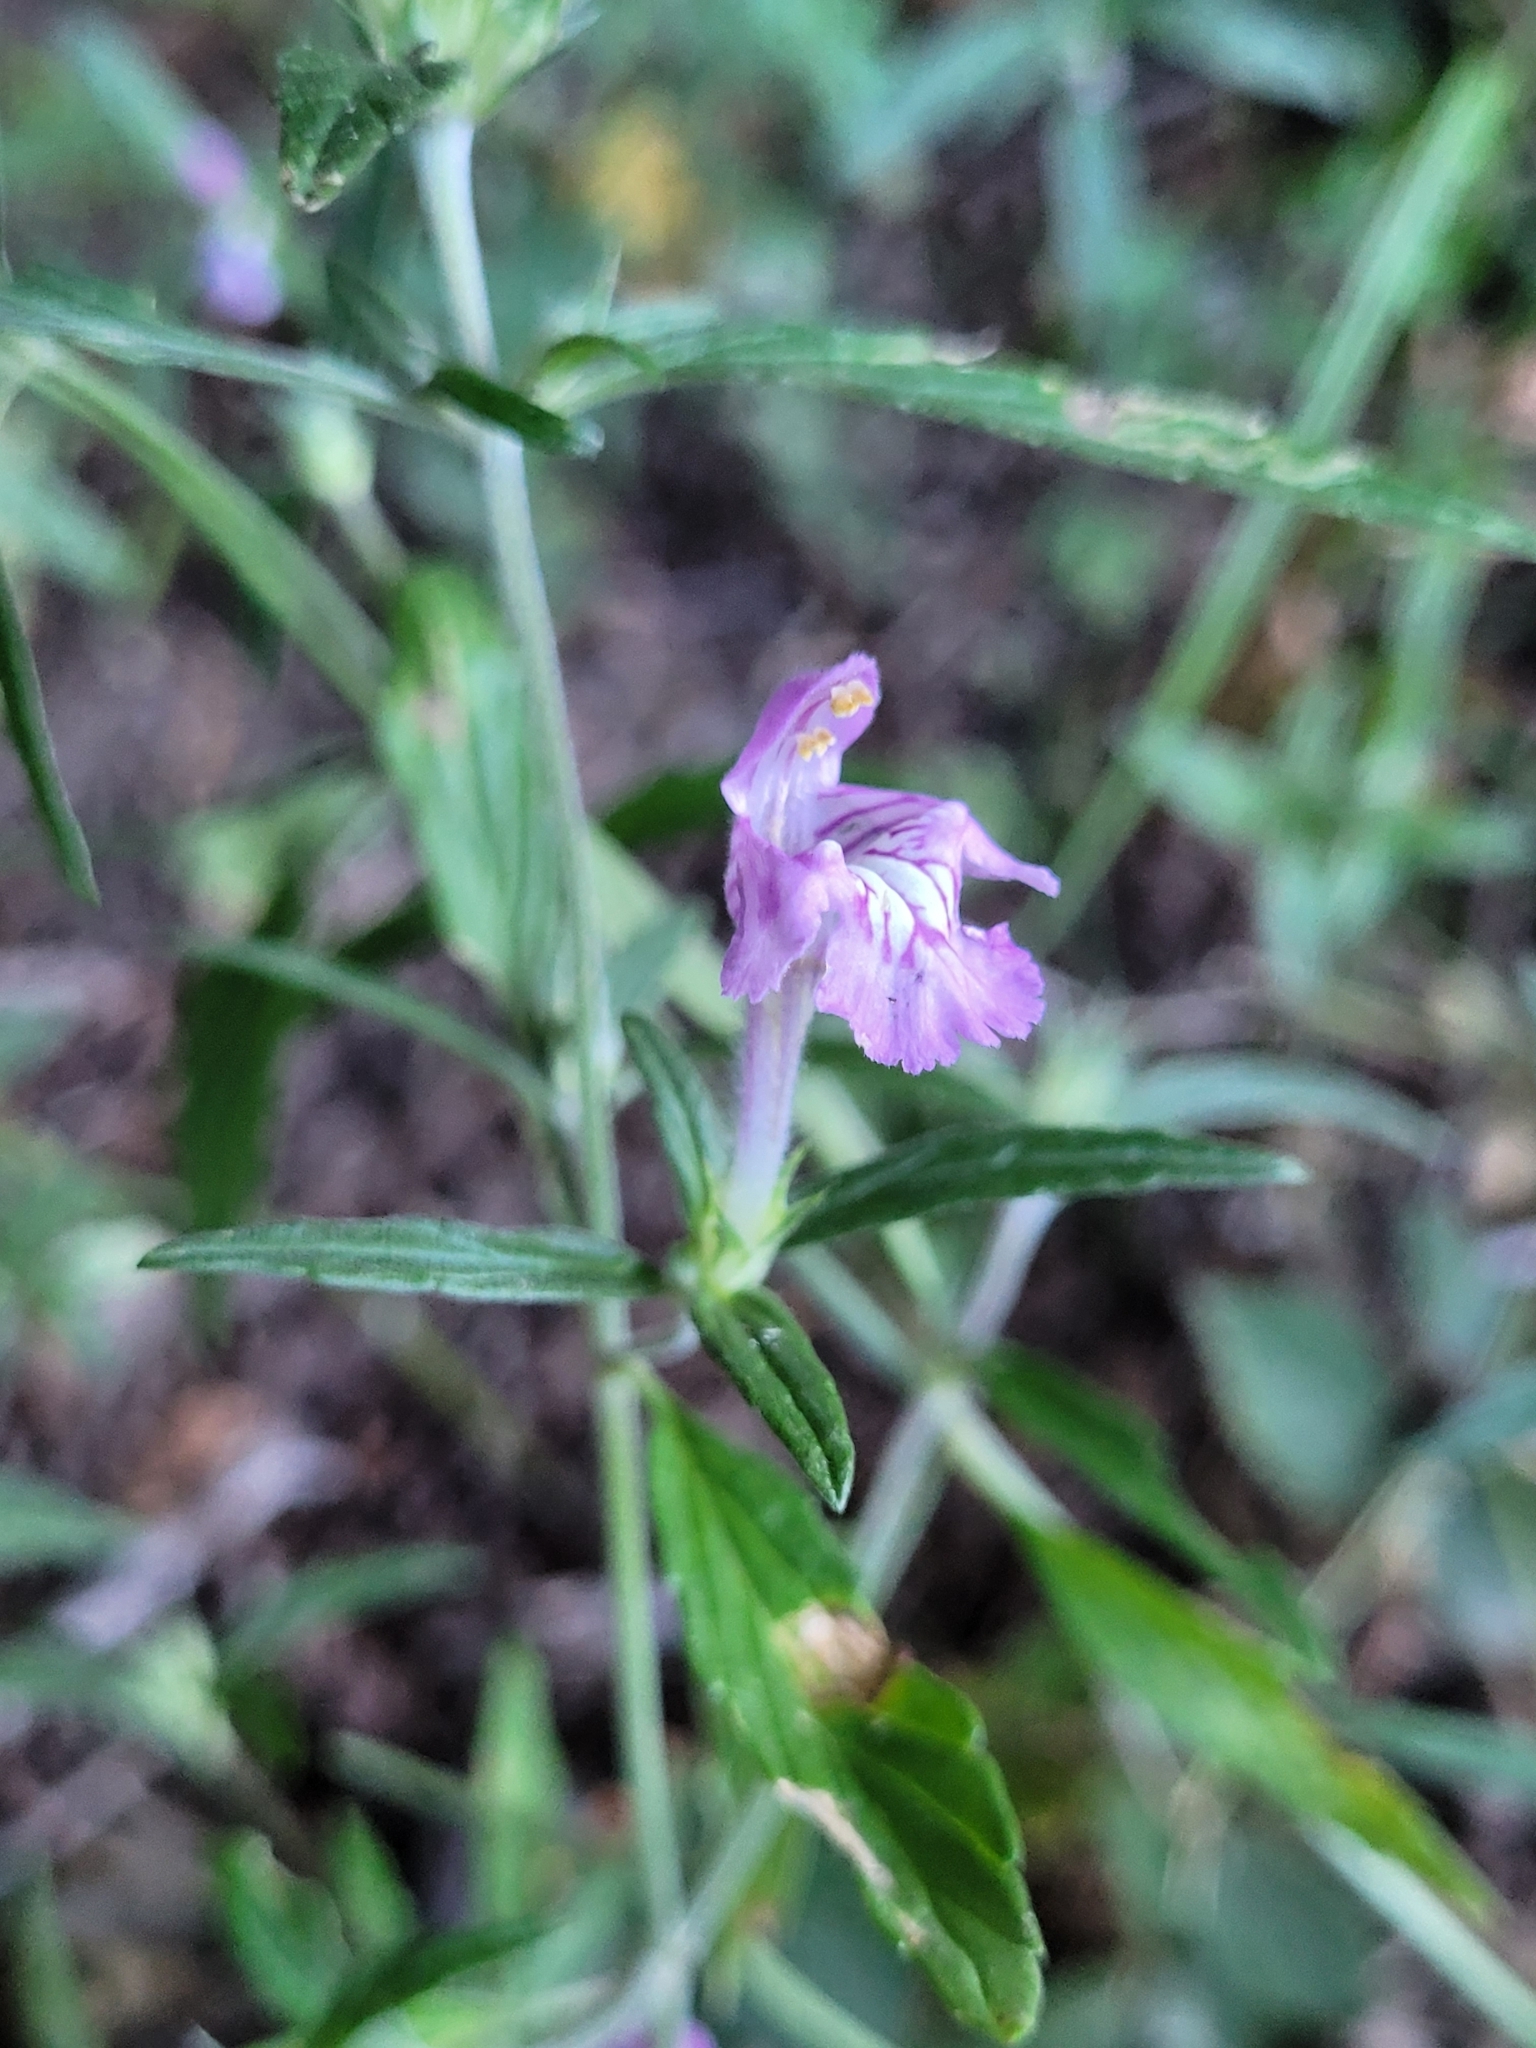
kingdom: Plantae
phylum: Tracheophyta
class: Magnoliopsida
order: Lamiales
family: Lamiaceae
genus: Galeopsis
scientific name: Galeopsis angustifolia
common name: Red hemp-nettle
